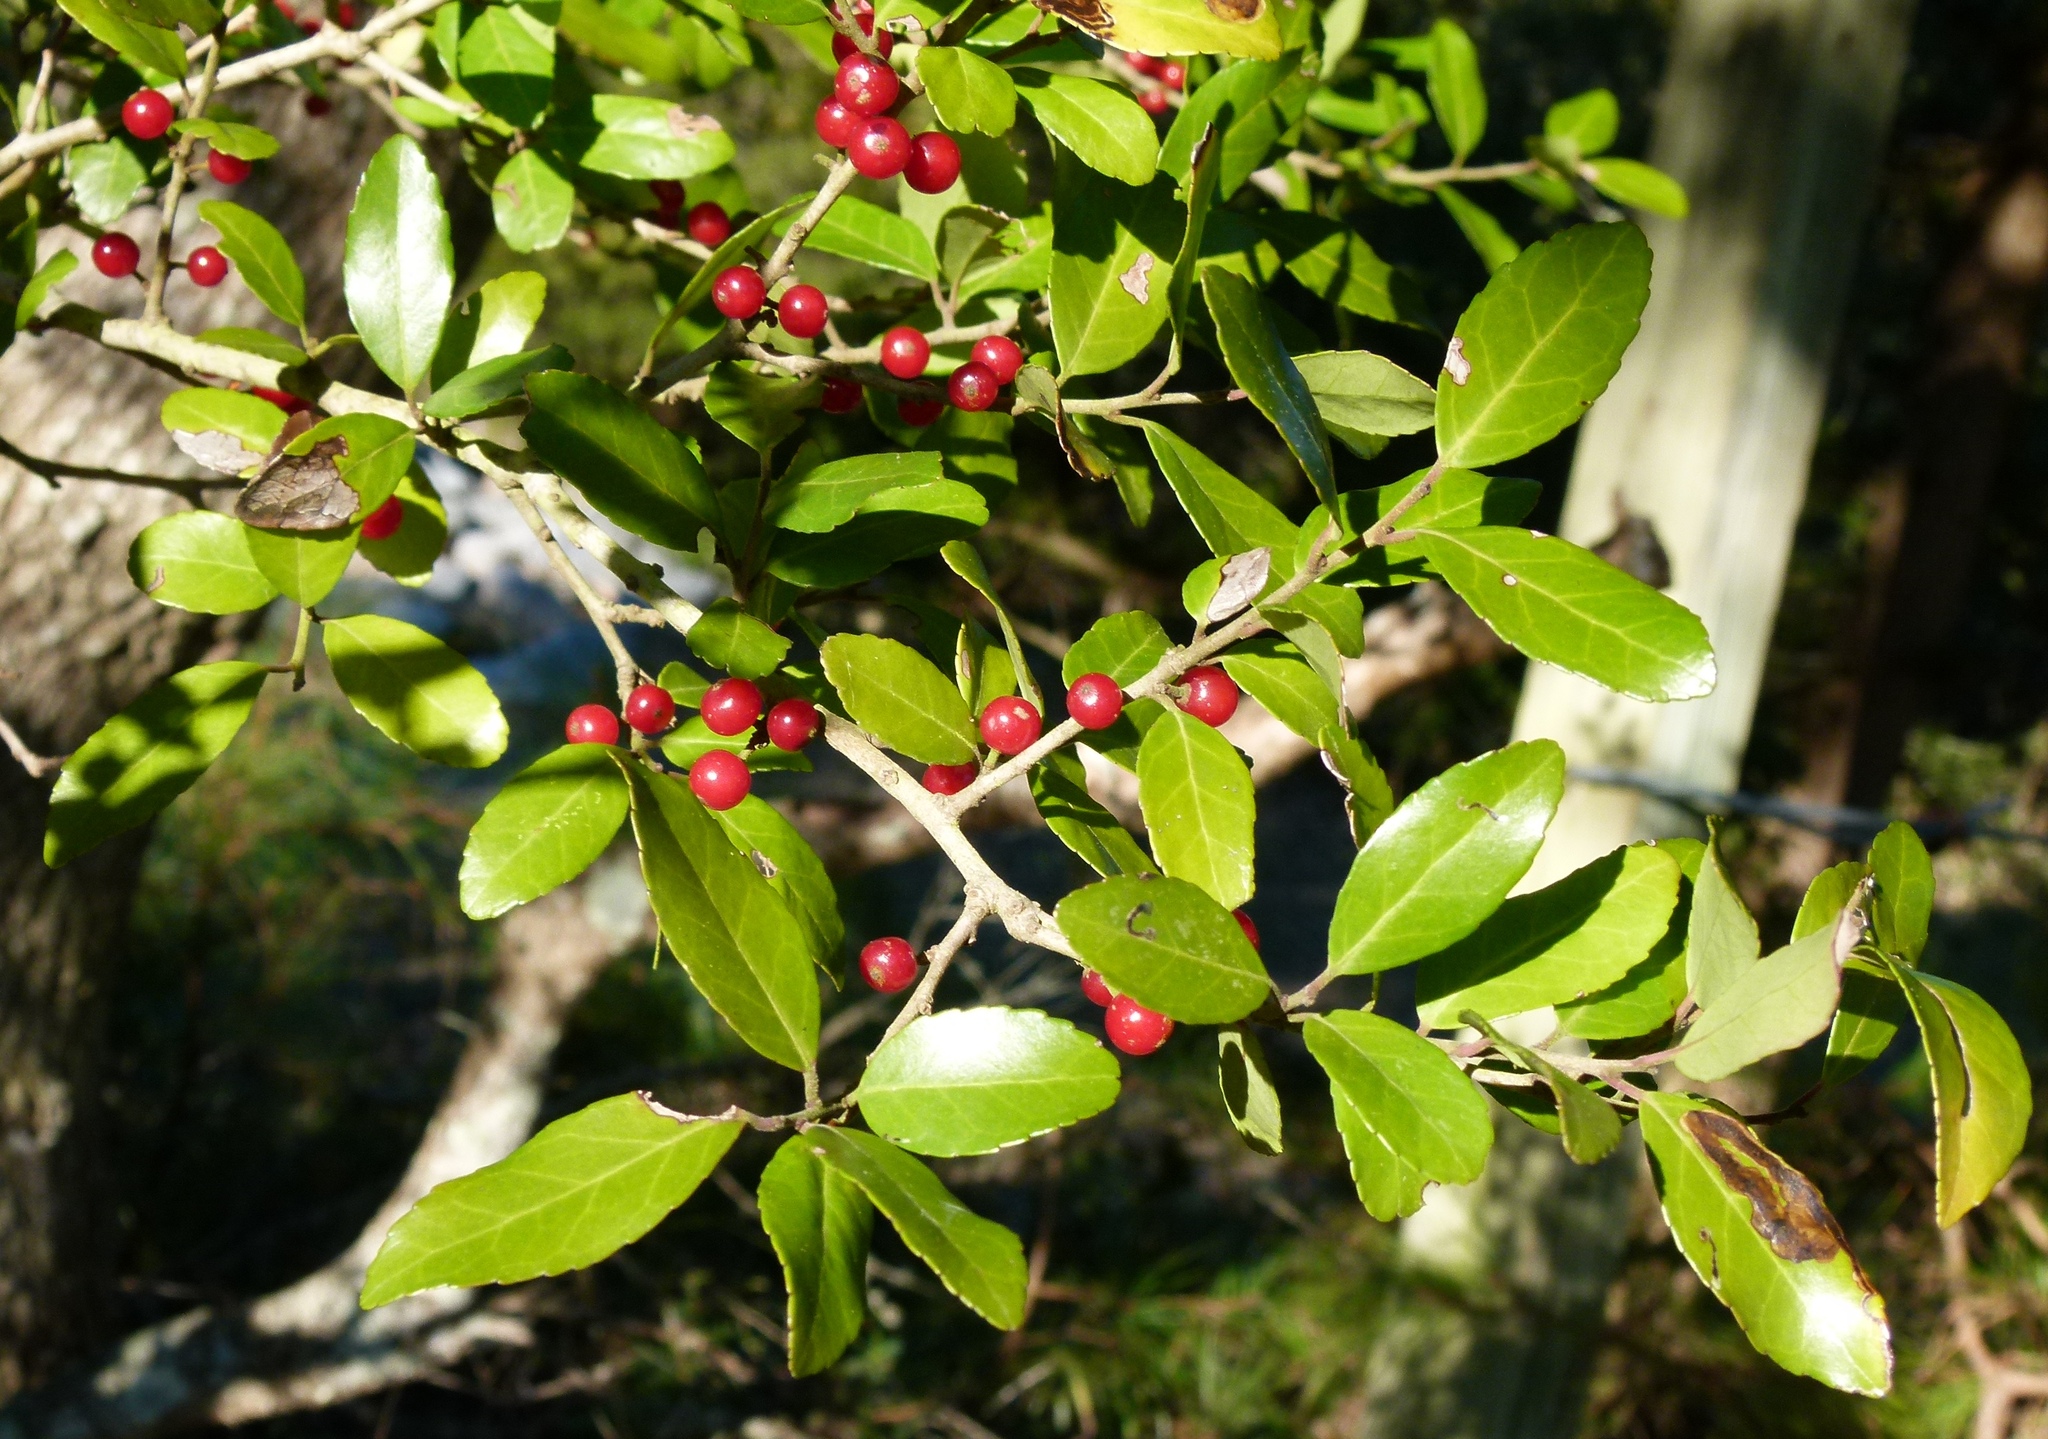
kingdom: Plantae
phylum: Tracheophyta
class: Magnoliopsida
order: Aquifoliales
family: Aquifoliaceae
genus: Ilex
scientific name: Ilex vomitoria
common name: Yaupon holly
